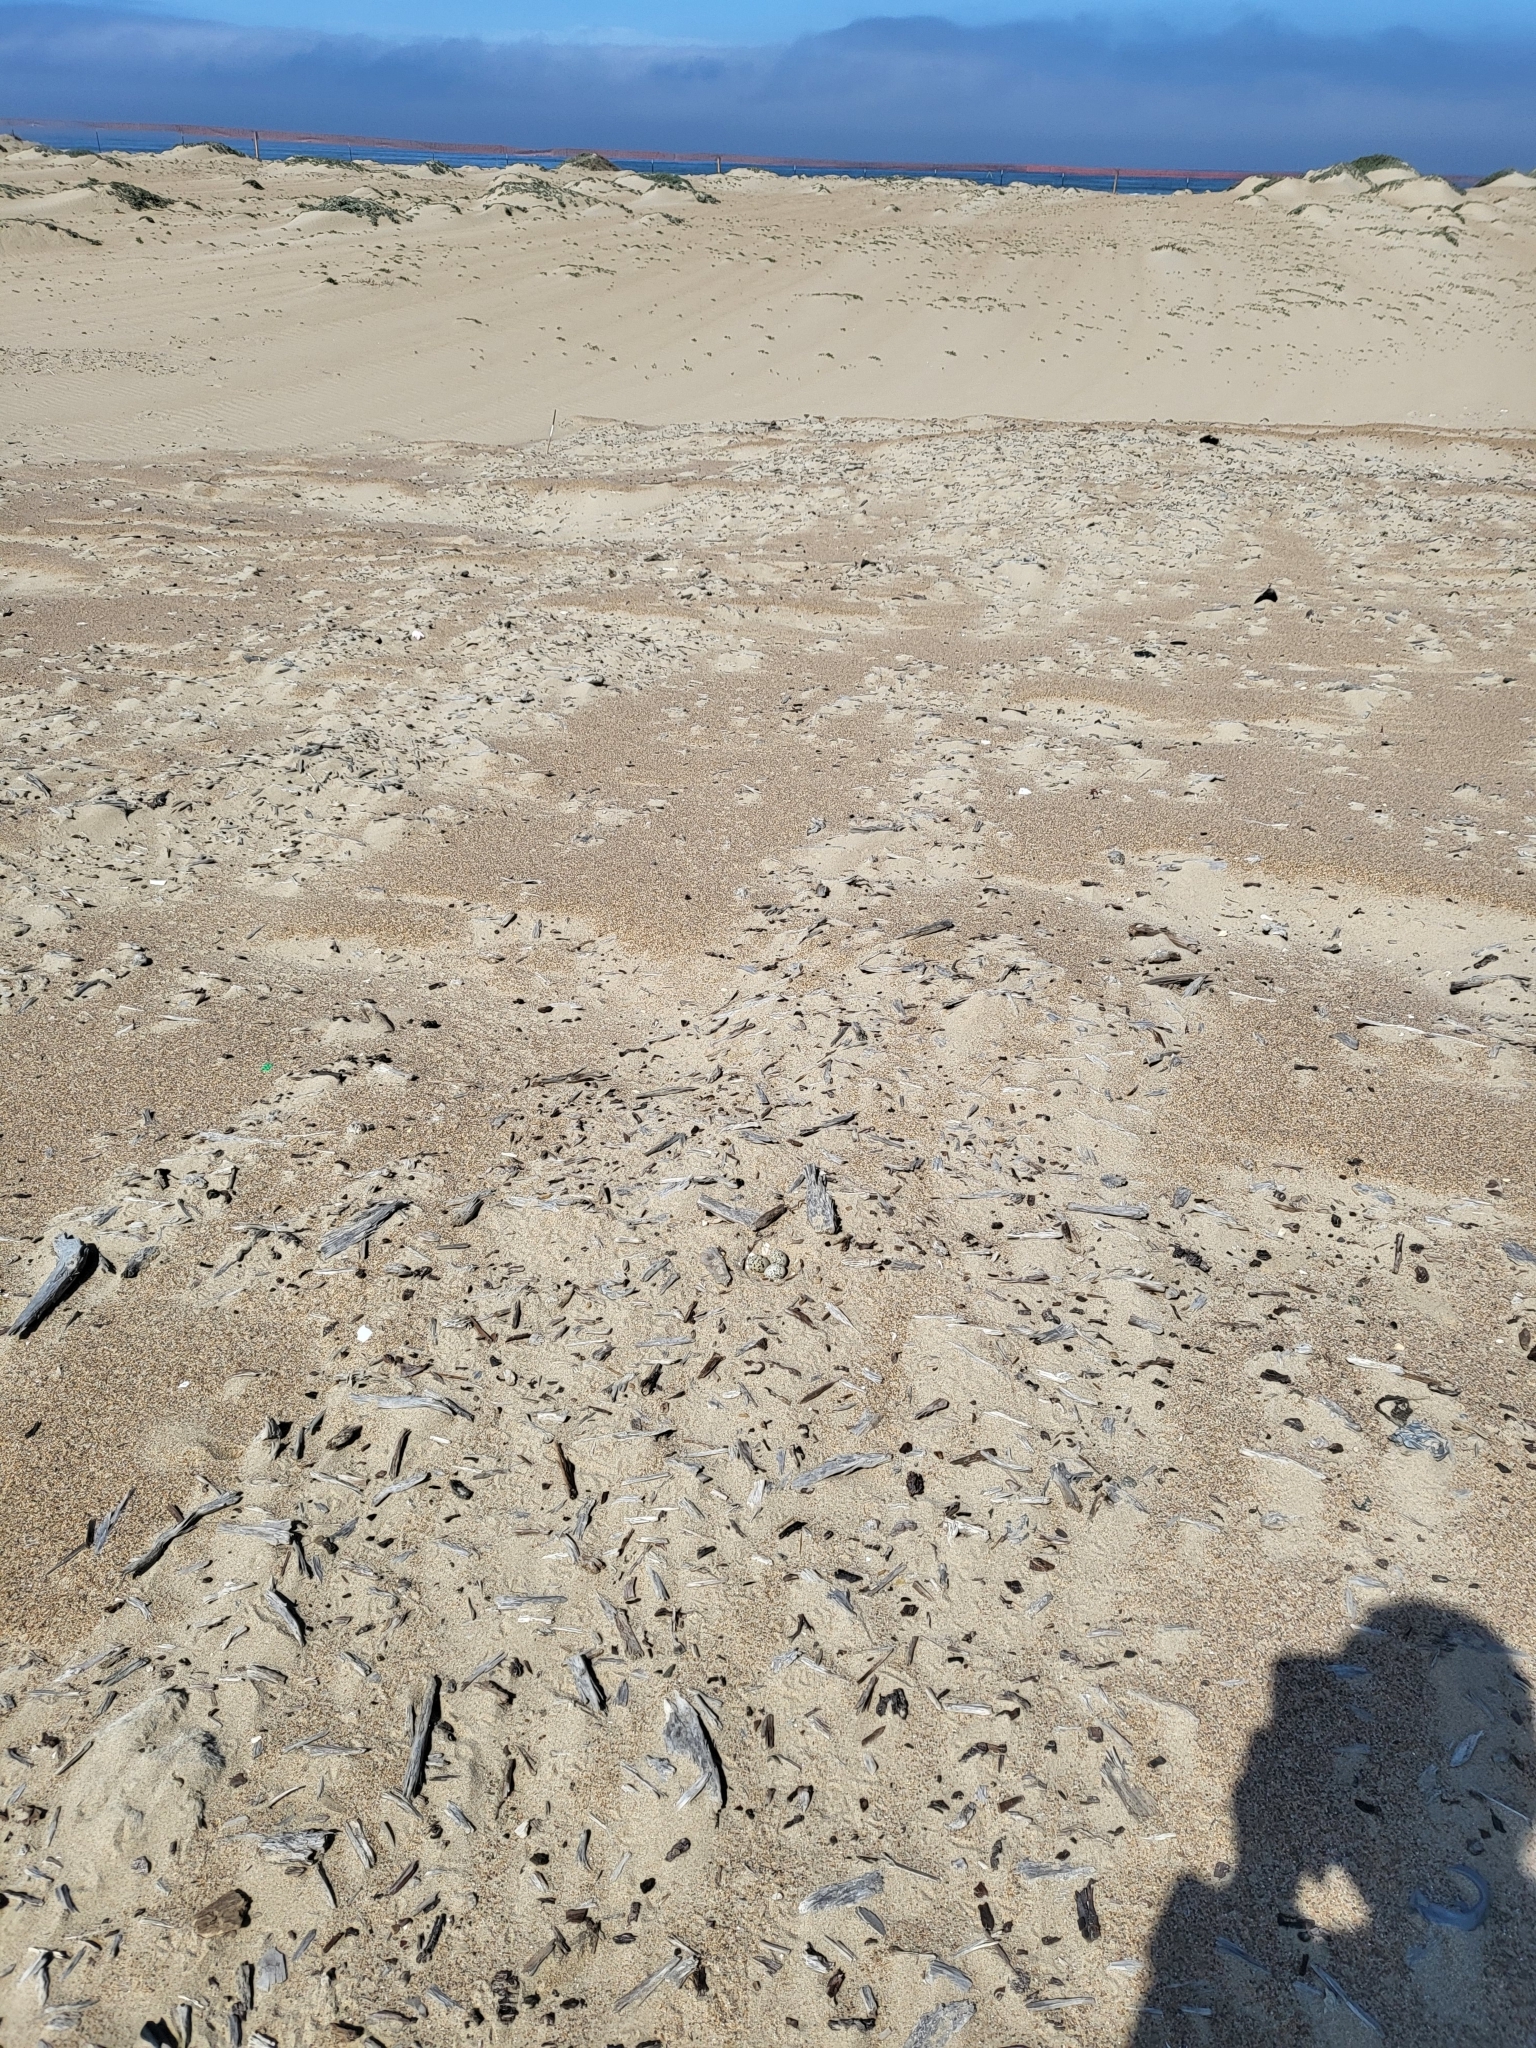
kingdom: Animalia
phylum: Chordata
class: Aves
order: Charadriiformes
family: Charadriidae
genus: Anarhynchus
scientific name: Anarhynchus
